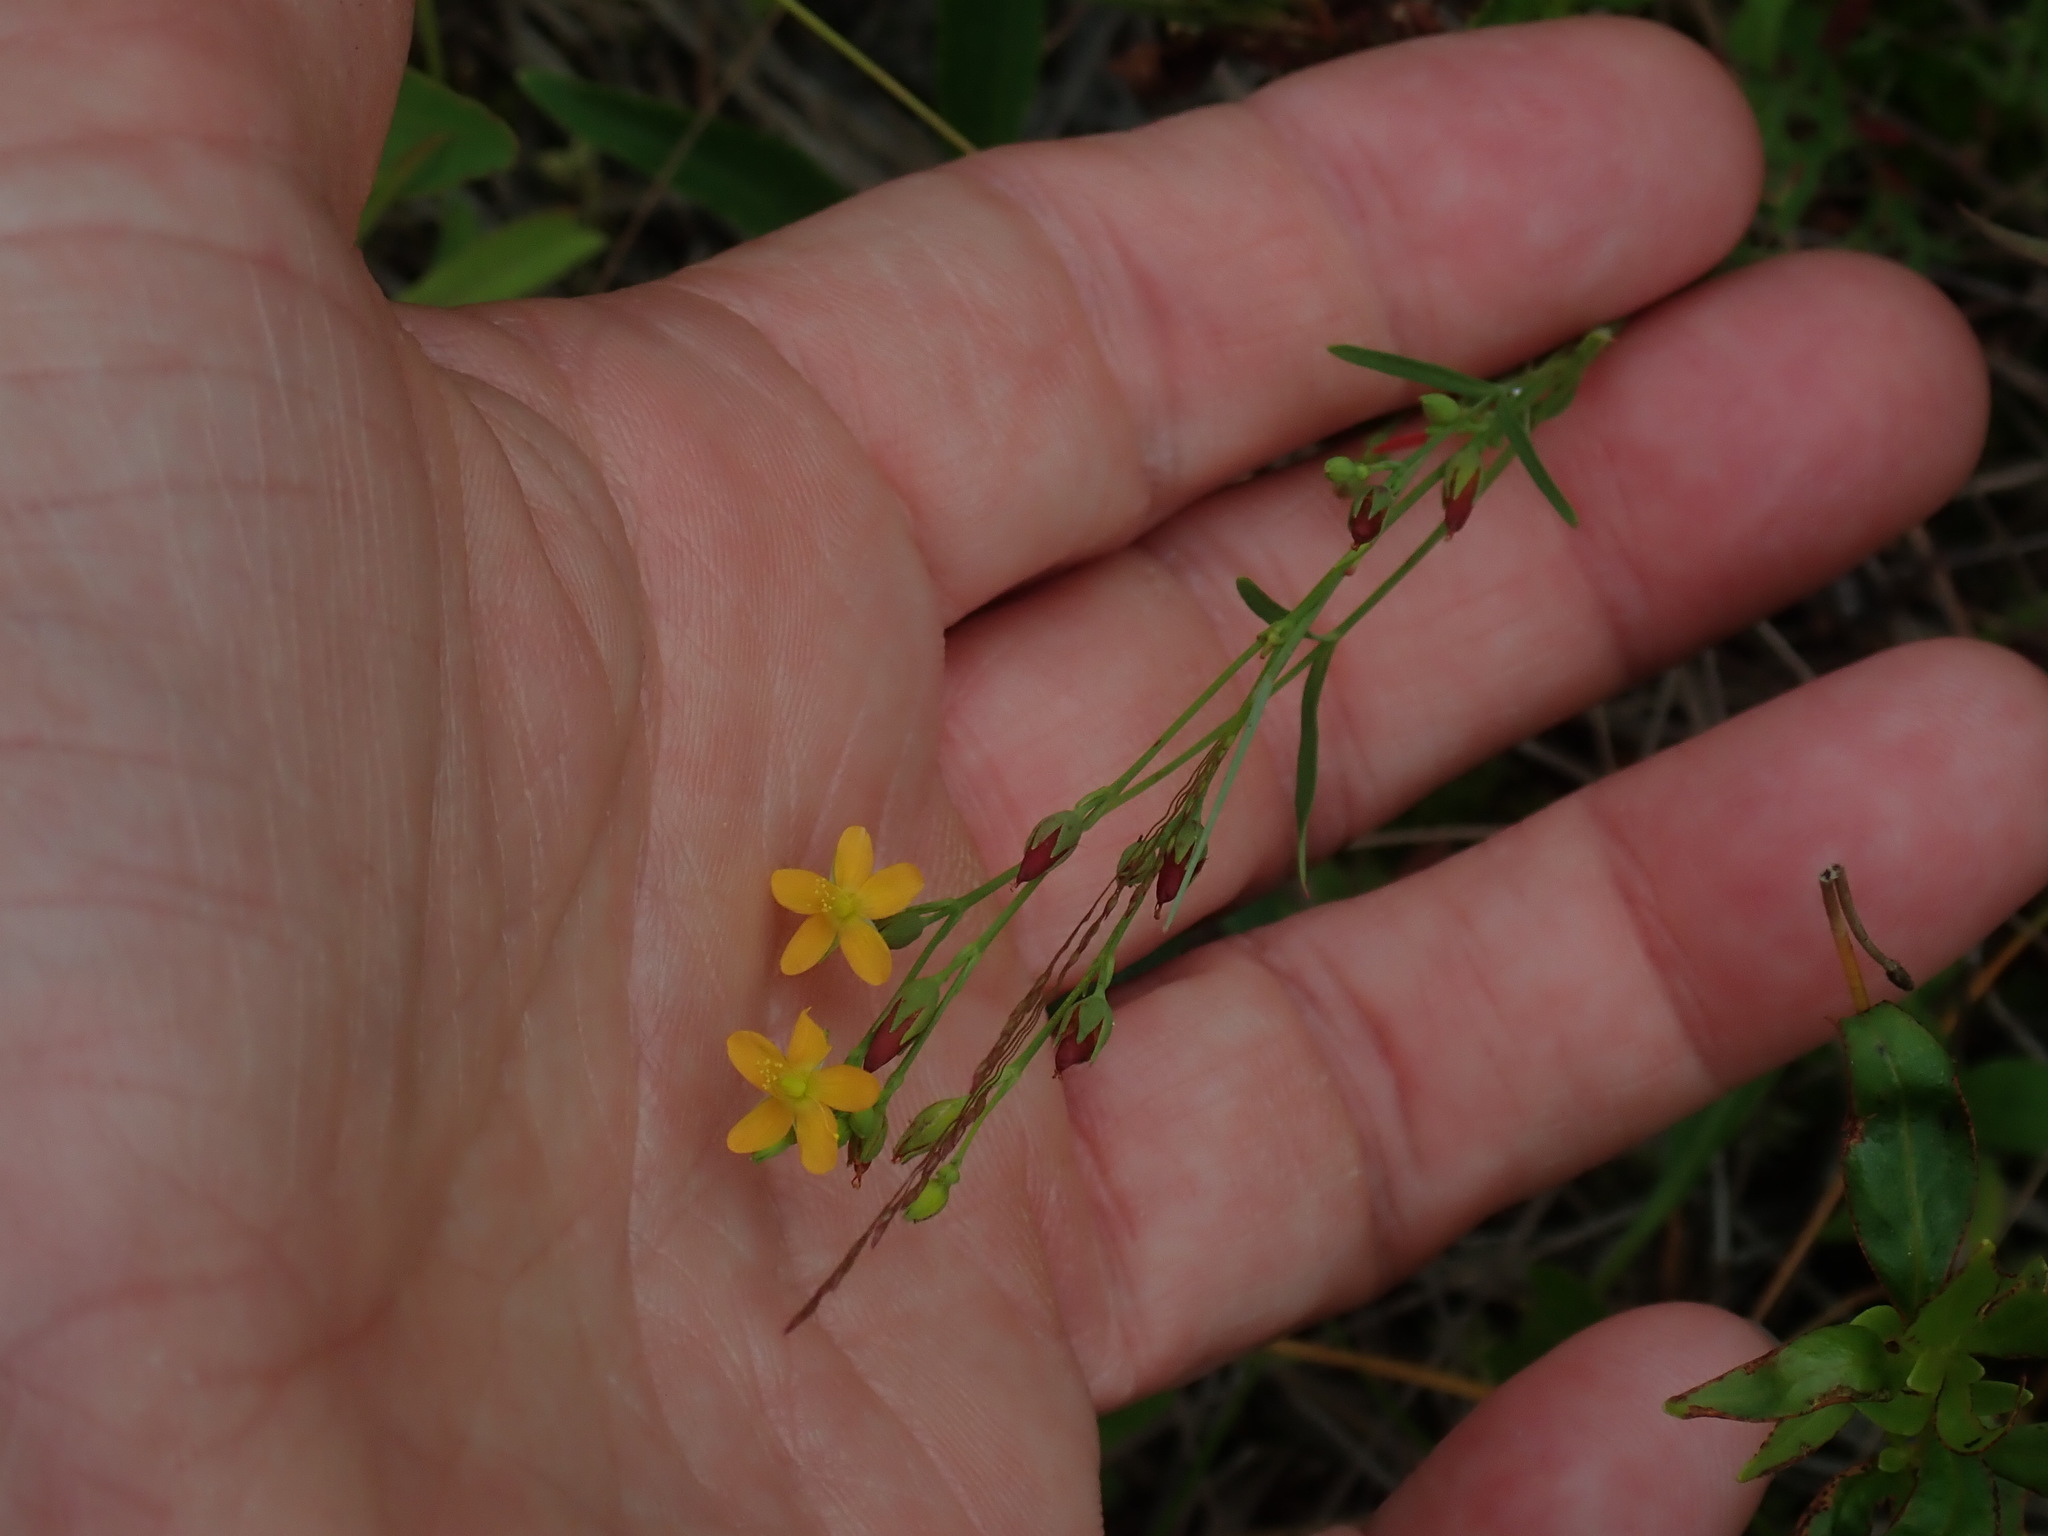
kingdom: Plantae
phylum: Tracheophyta
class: Magnoliopsida
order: Malpighiales
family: Hypericaceae
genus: Hypericum
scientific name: Hypericum canadense
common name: Irish st. john's-wort
